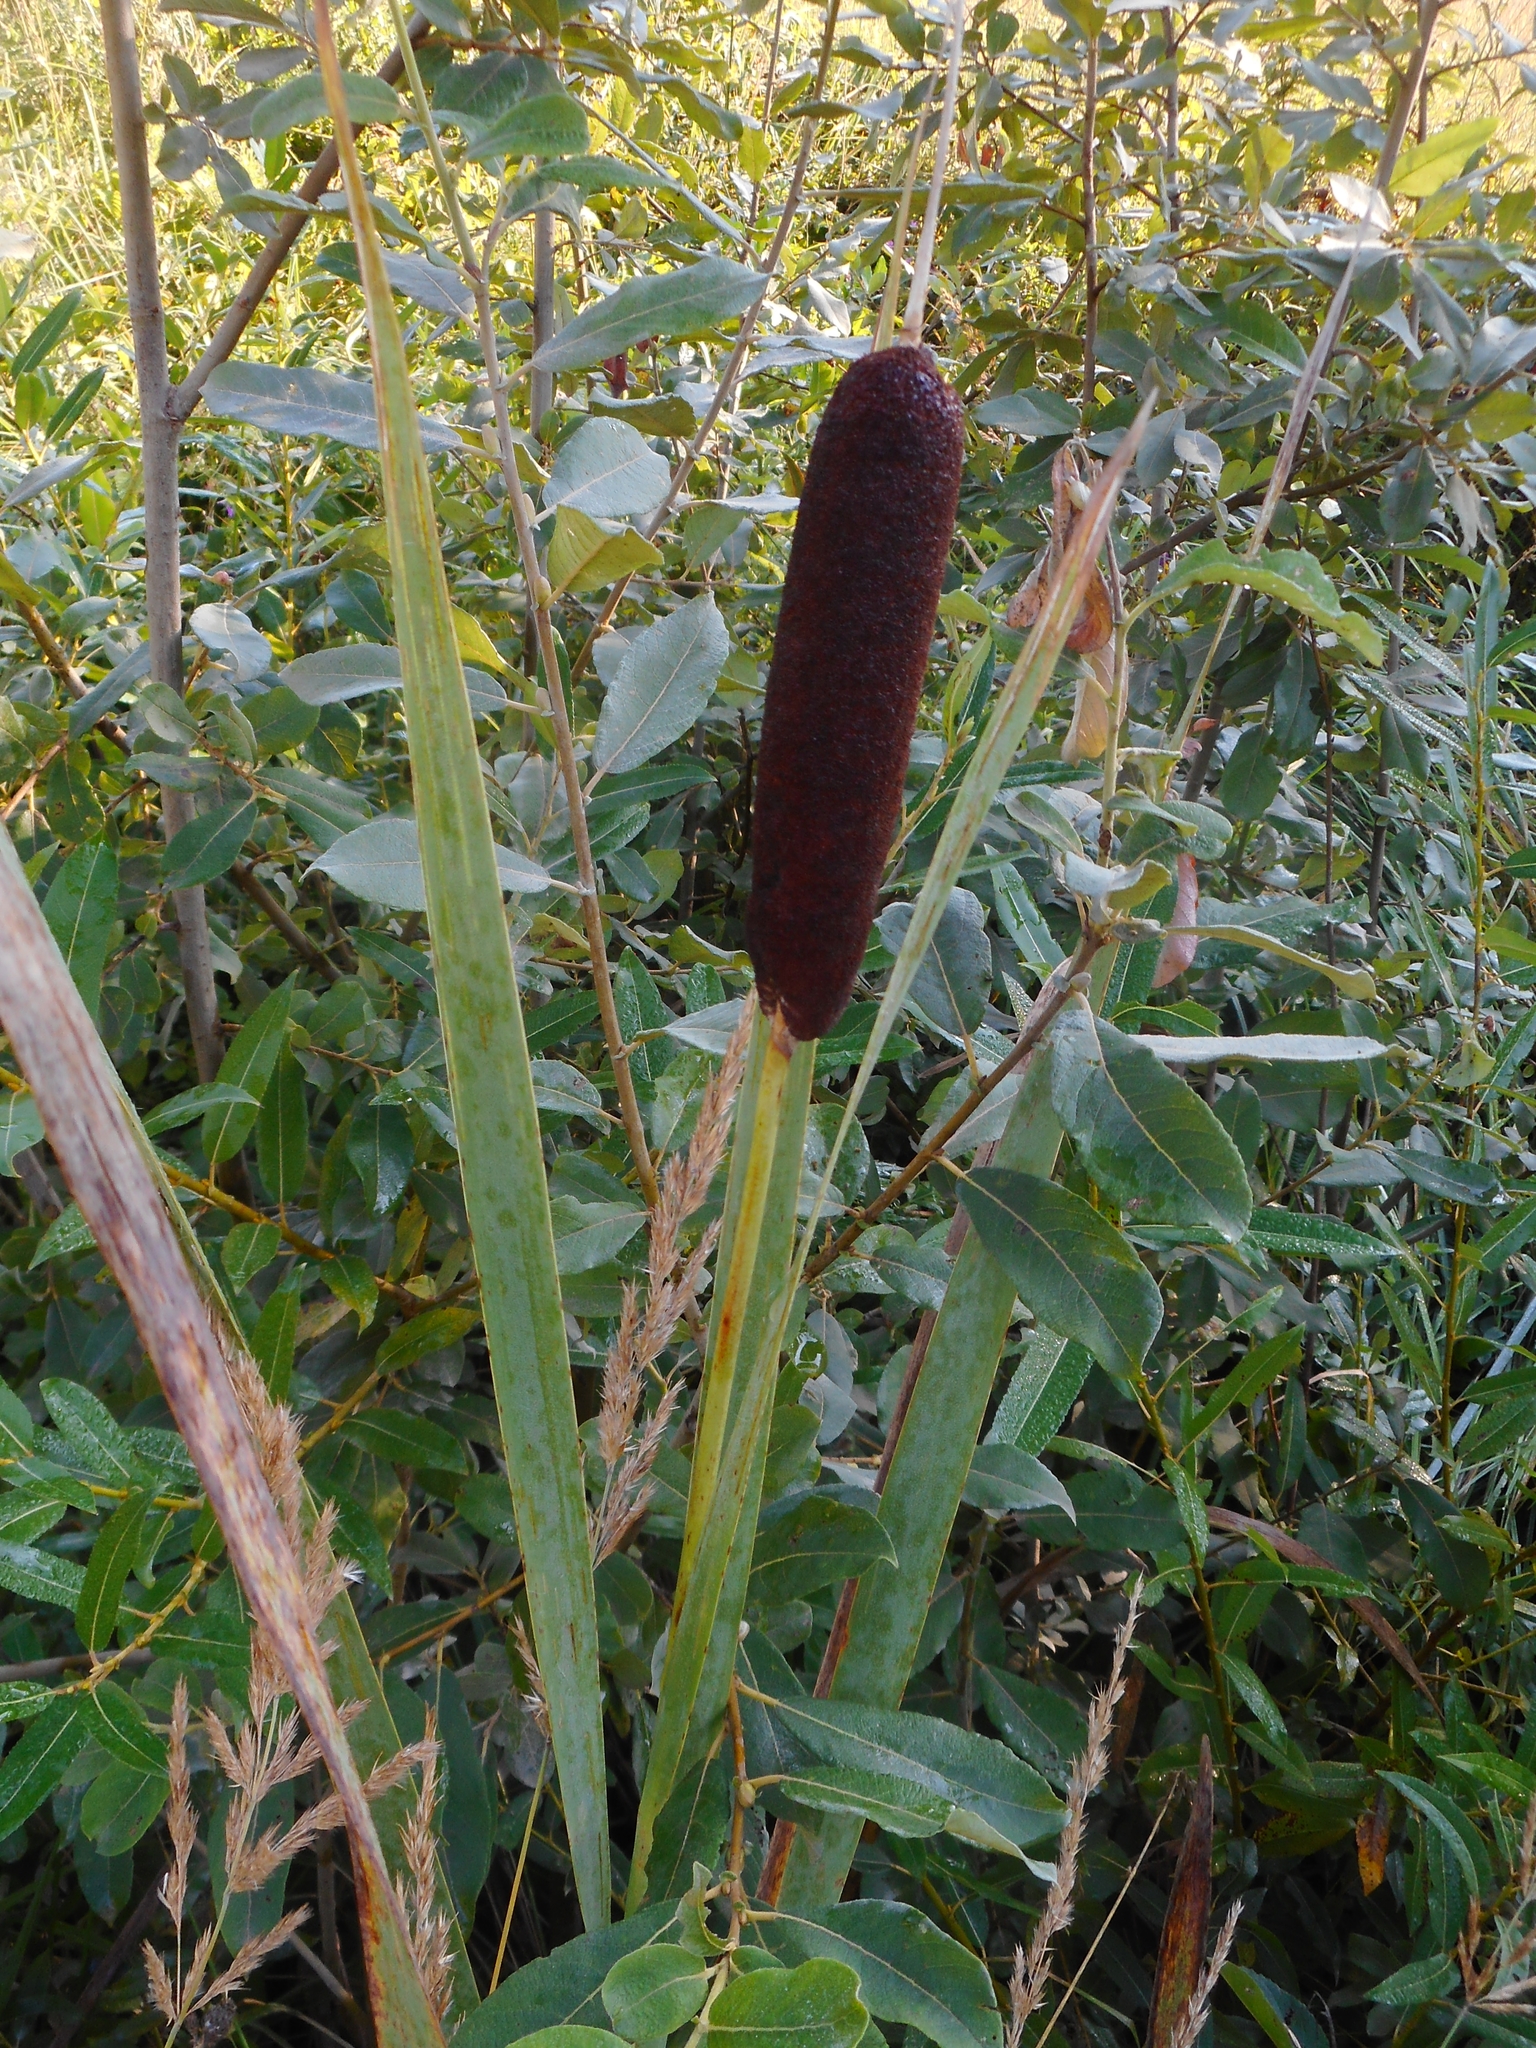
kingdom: Plantae
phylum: Tracheophyta
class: Liliopsida
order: Poales
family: Typhaceae
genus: Typha
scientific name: Typha latifolia
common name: Broadleaf cattail
